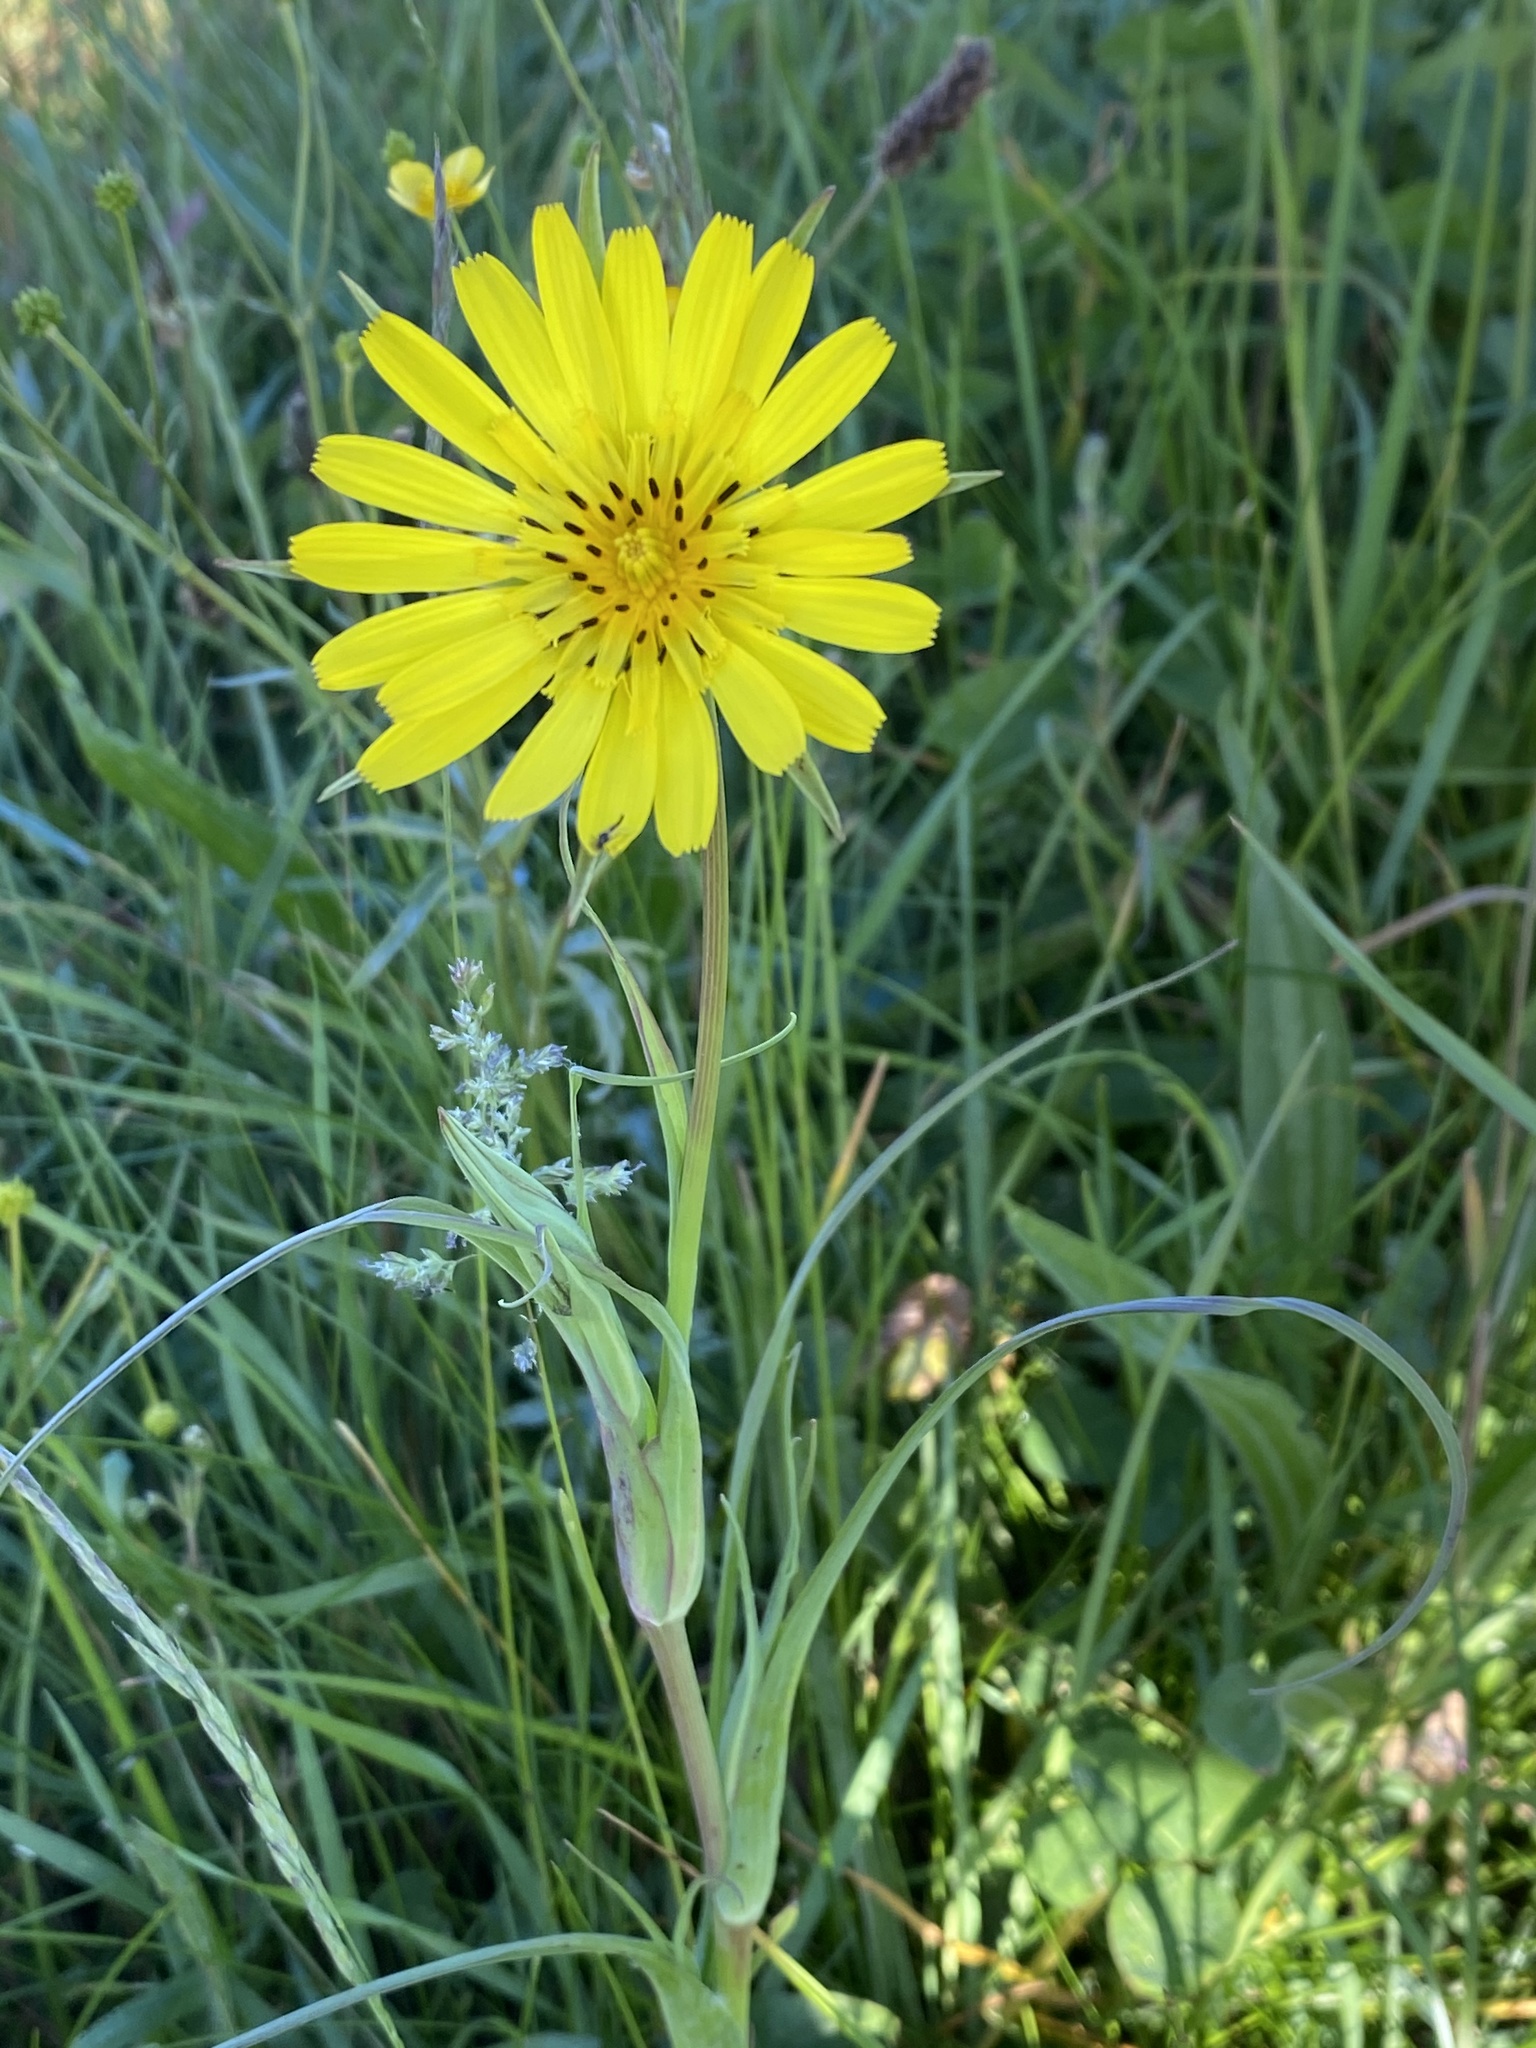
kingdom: Plantae
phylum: Tracheophyta
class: Magnoliopsida
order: Asterales
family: Asteraceae
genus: Tragopogon
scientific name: Tragopogon pratensis
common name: Goat's-beard
